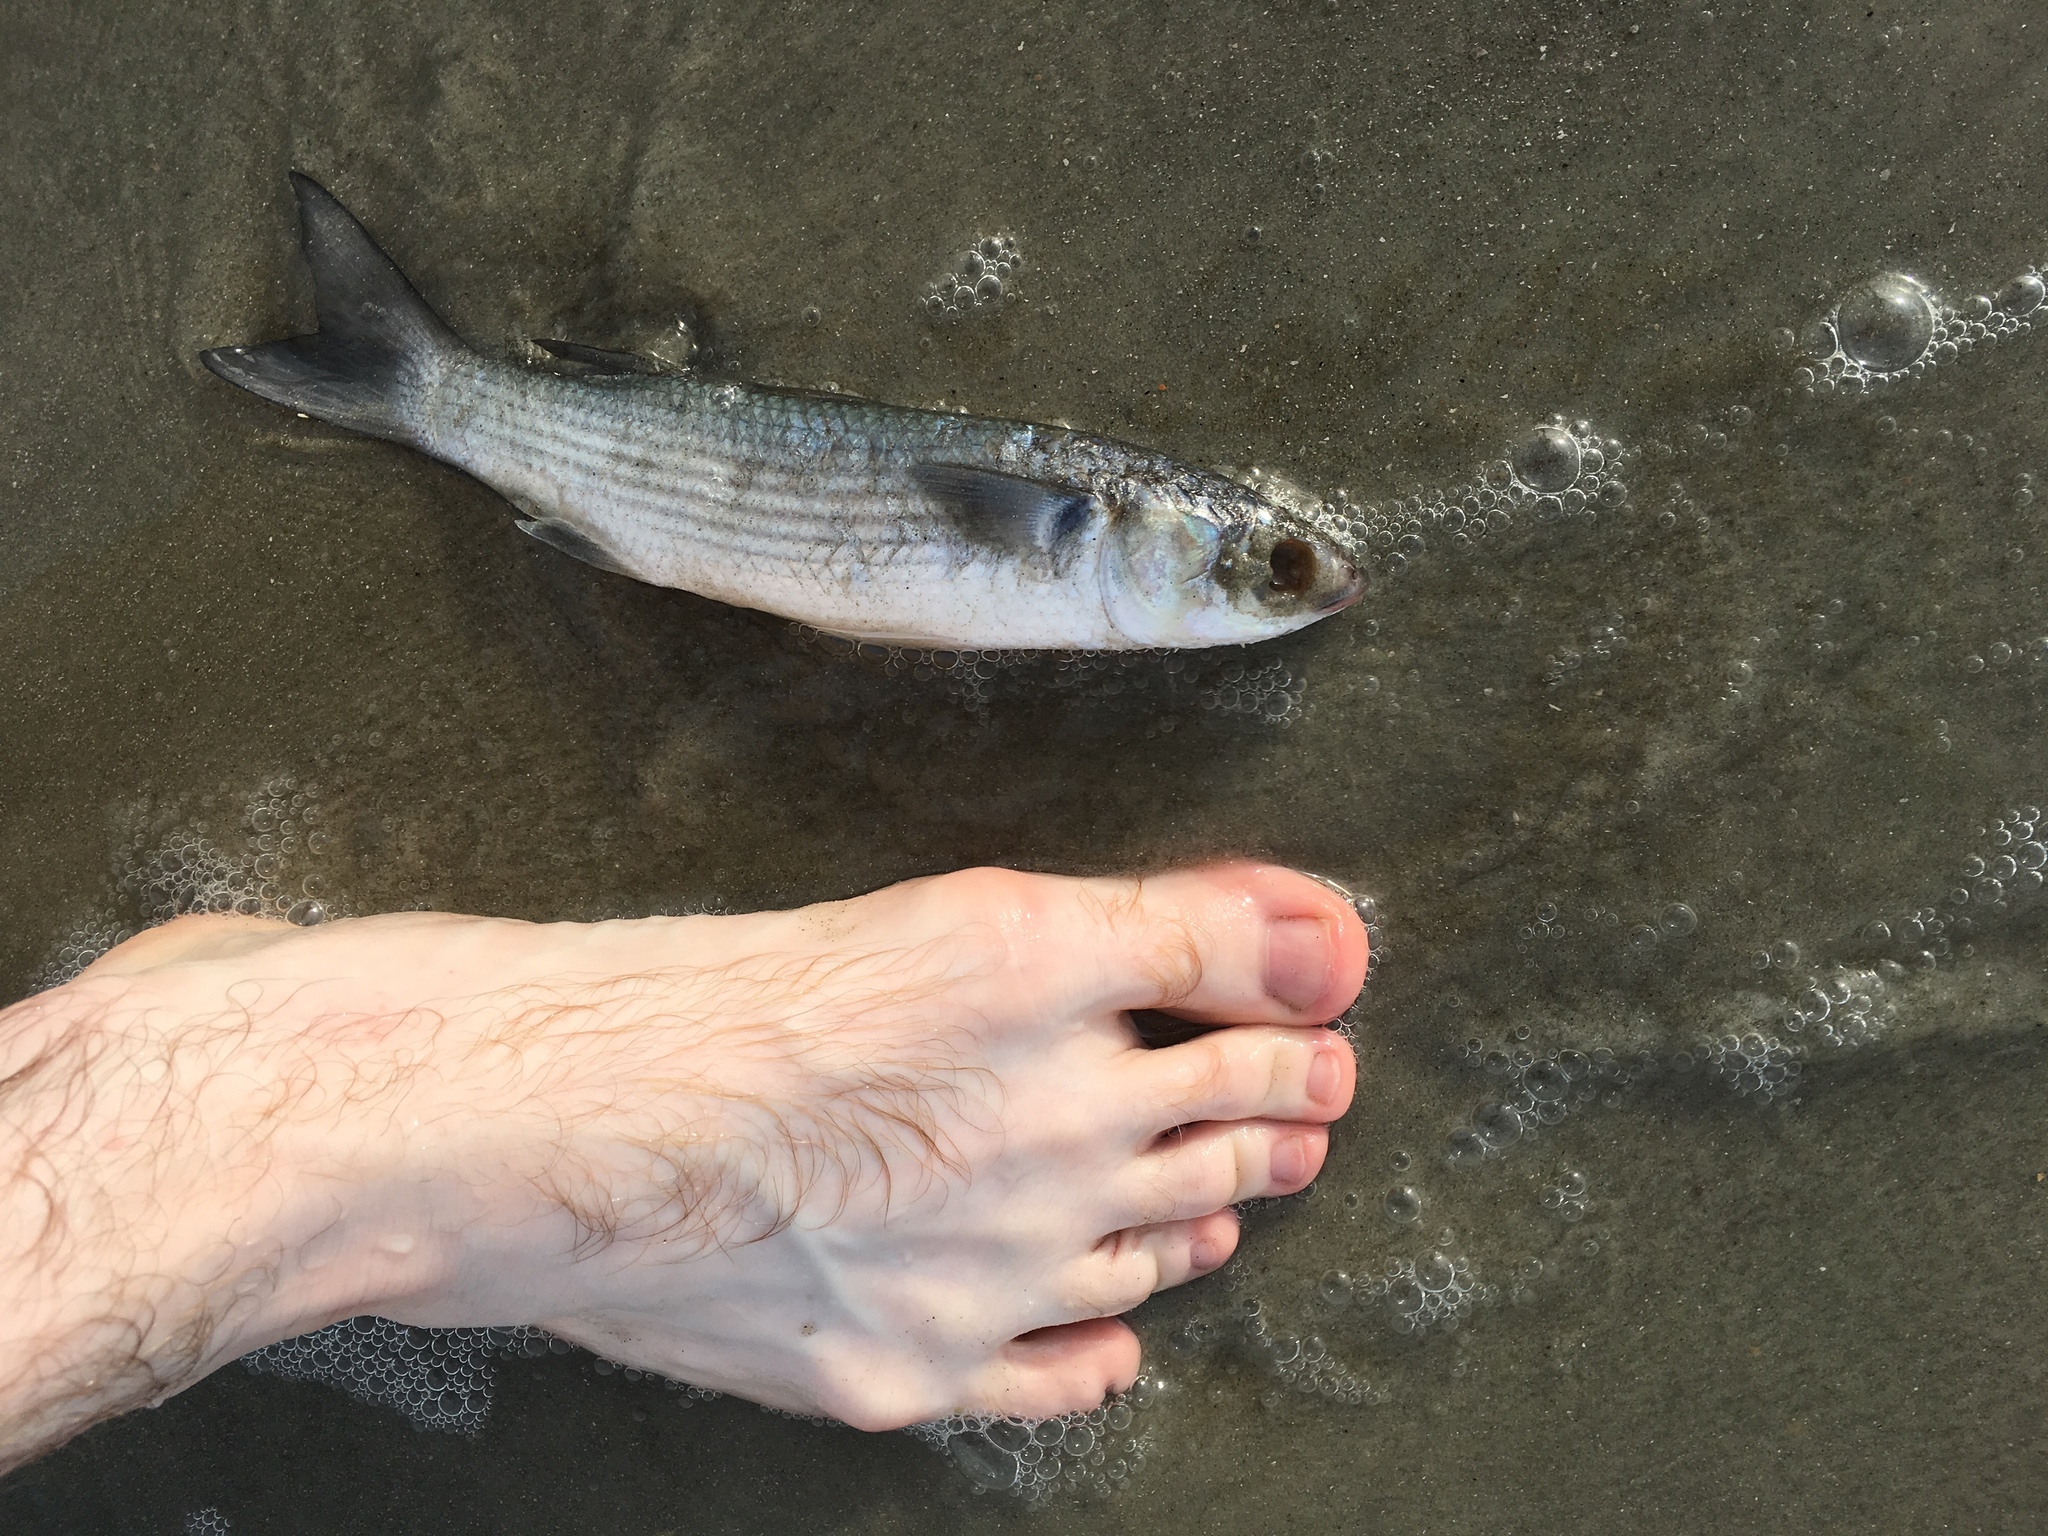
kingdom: Animalia
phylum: Chordata
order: Mugiliformes
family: Mugilidae
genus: Mugil
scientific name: Mugil cephalus
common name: Grey mullet
